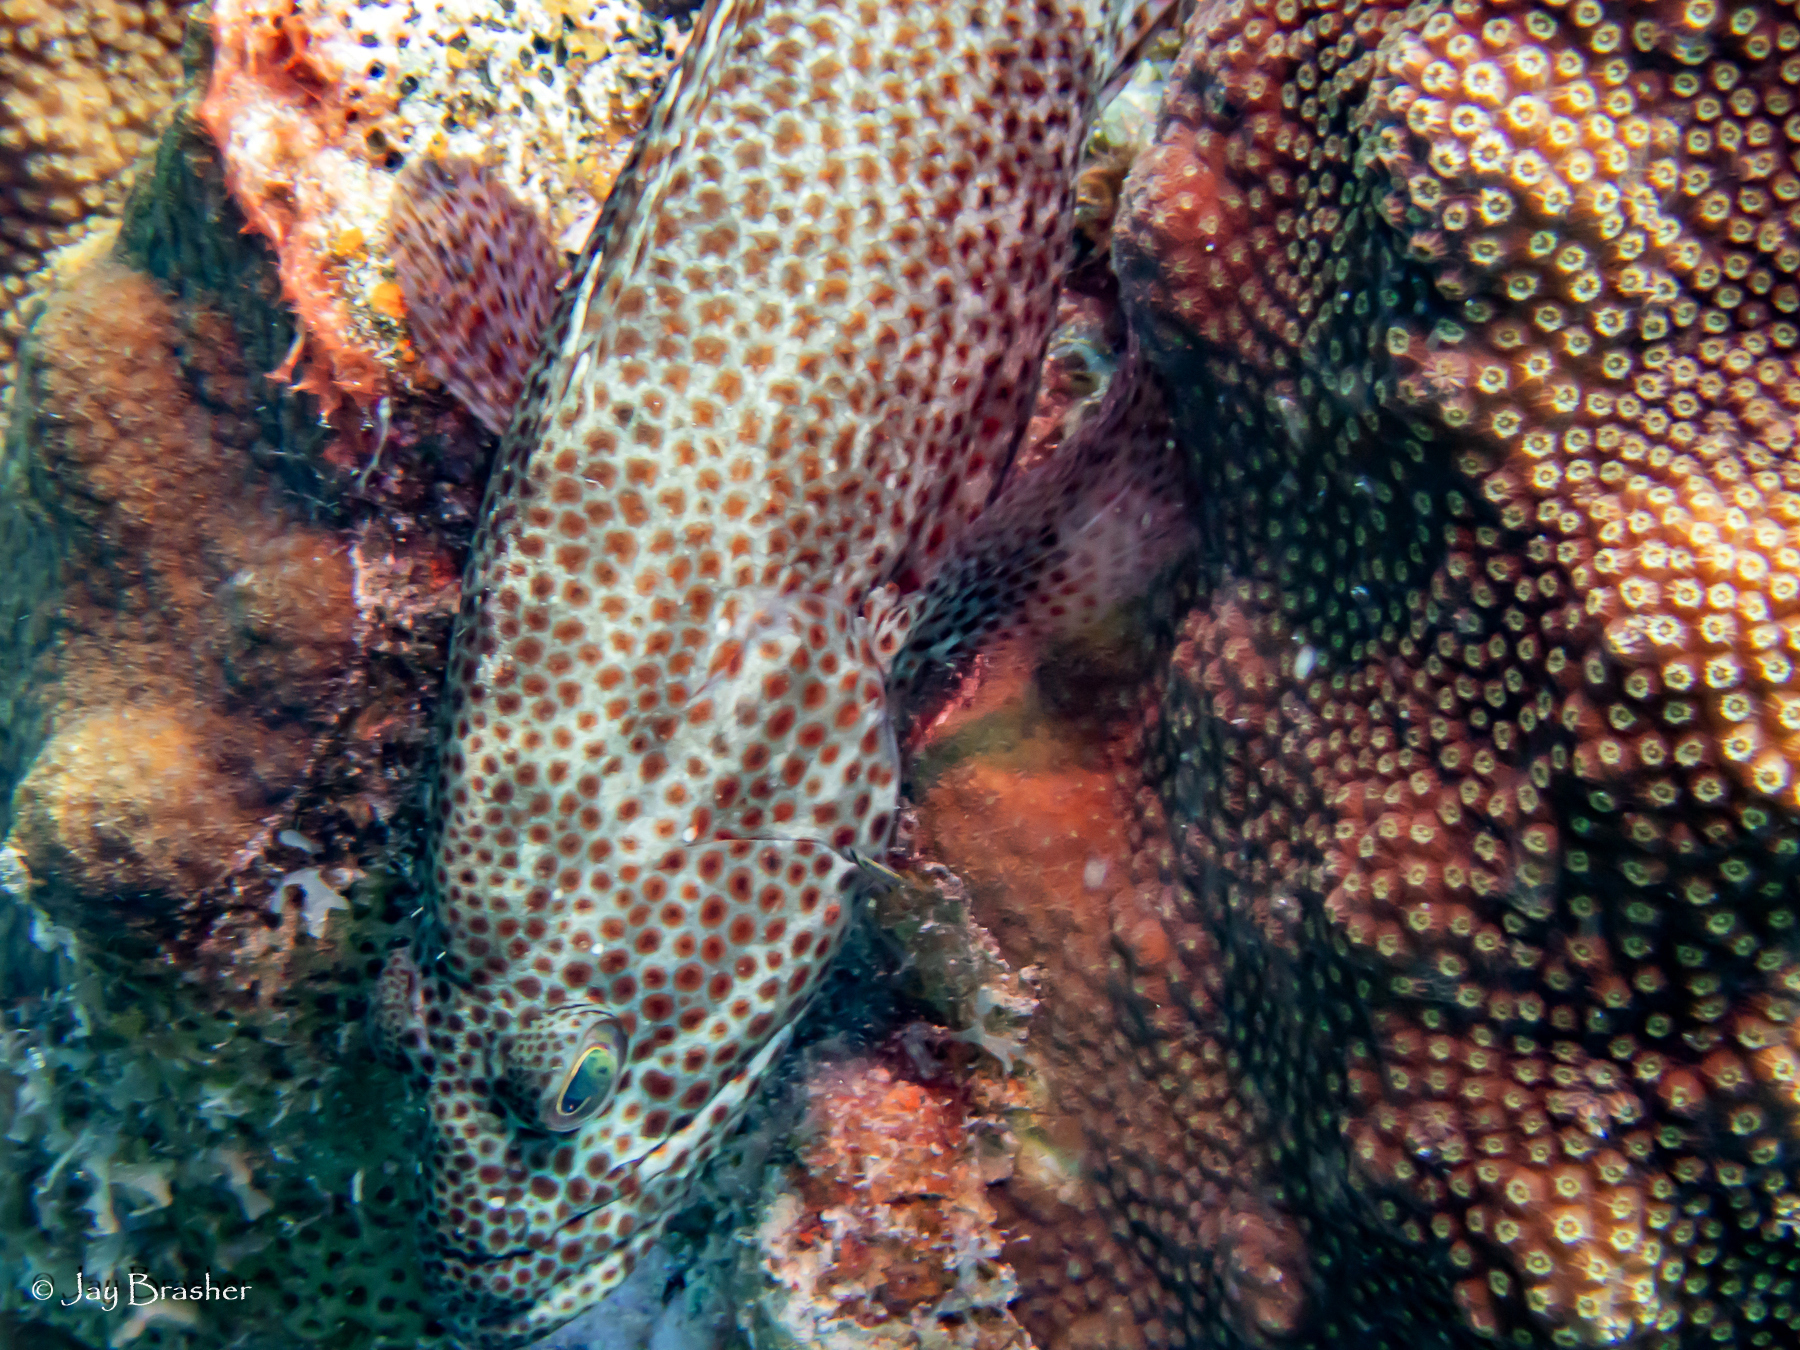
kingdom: Animalia
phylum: Chordata
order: Perciformes
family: Serranidae
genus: Cephalopholis
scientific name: Cephalopholis cruentata
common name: Graysby
